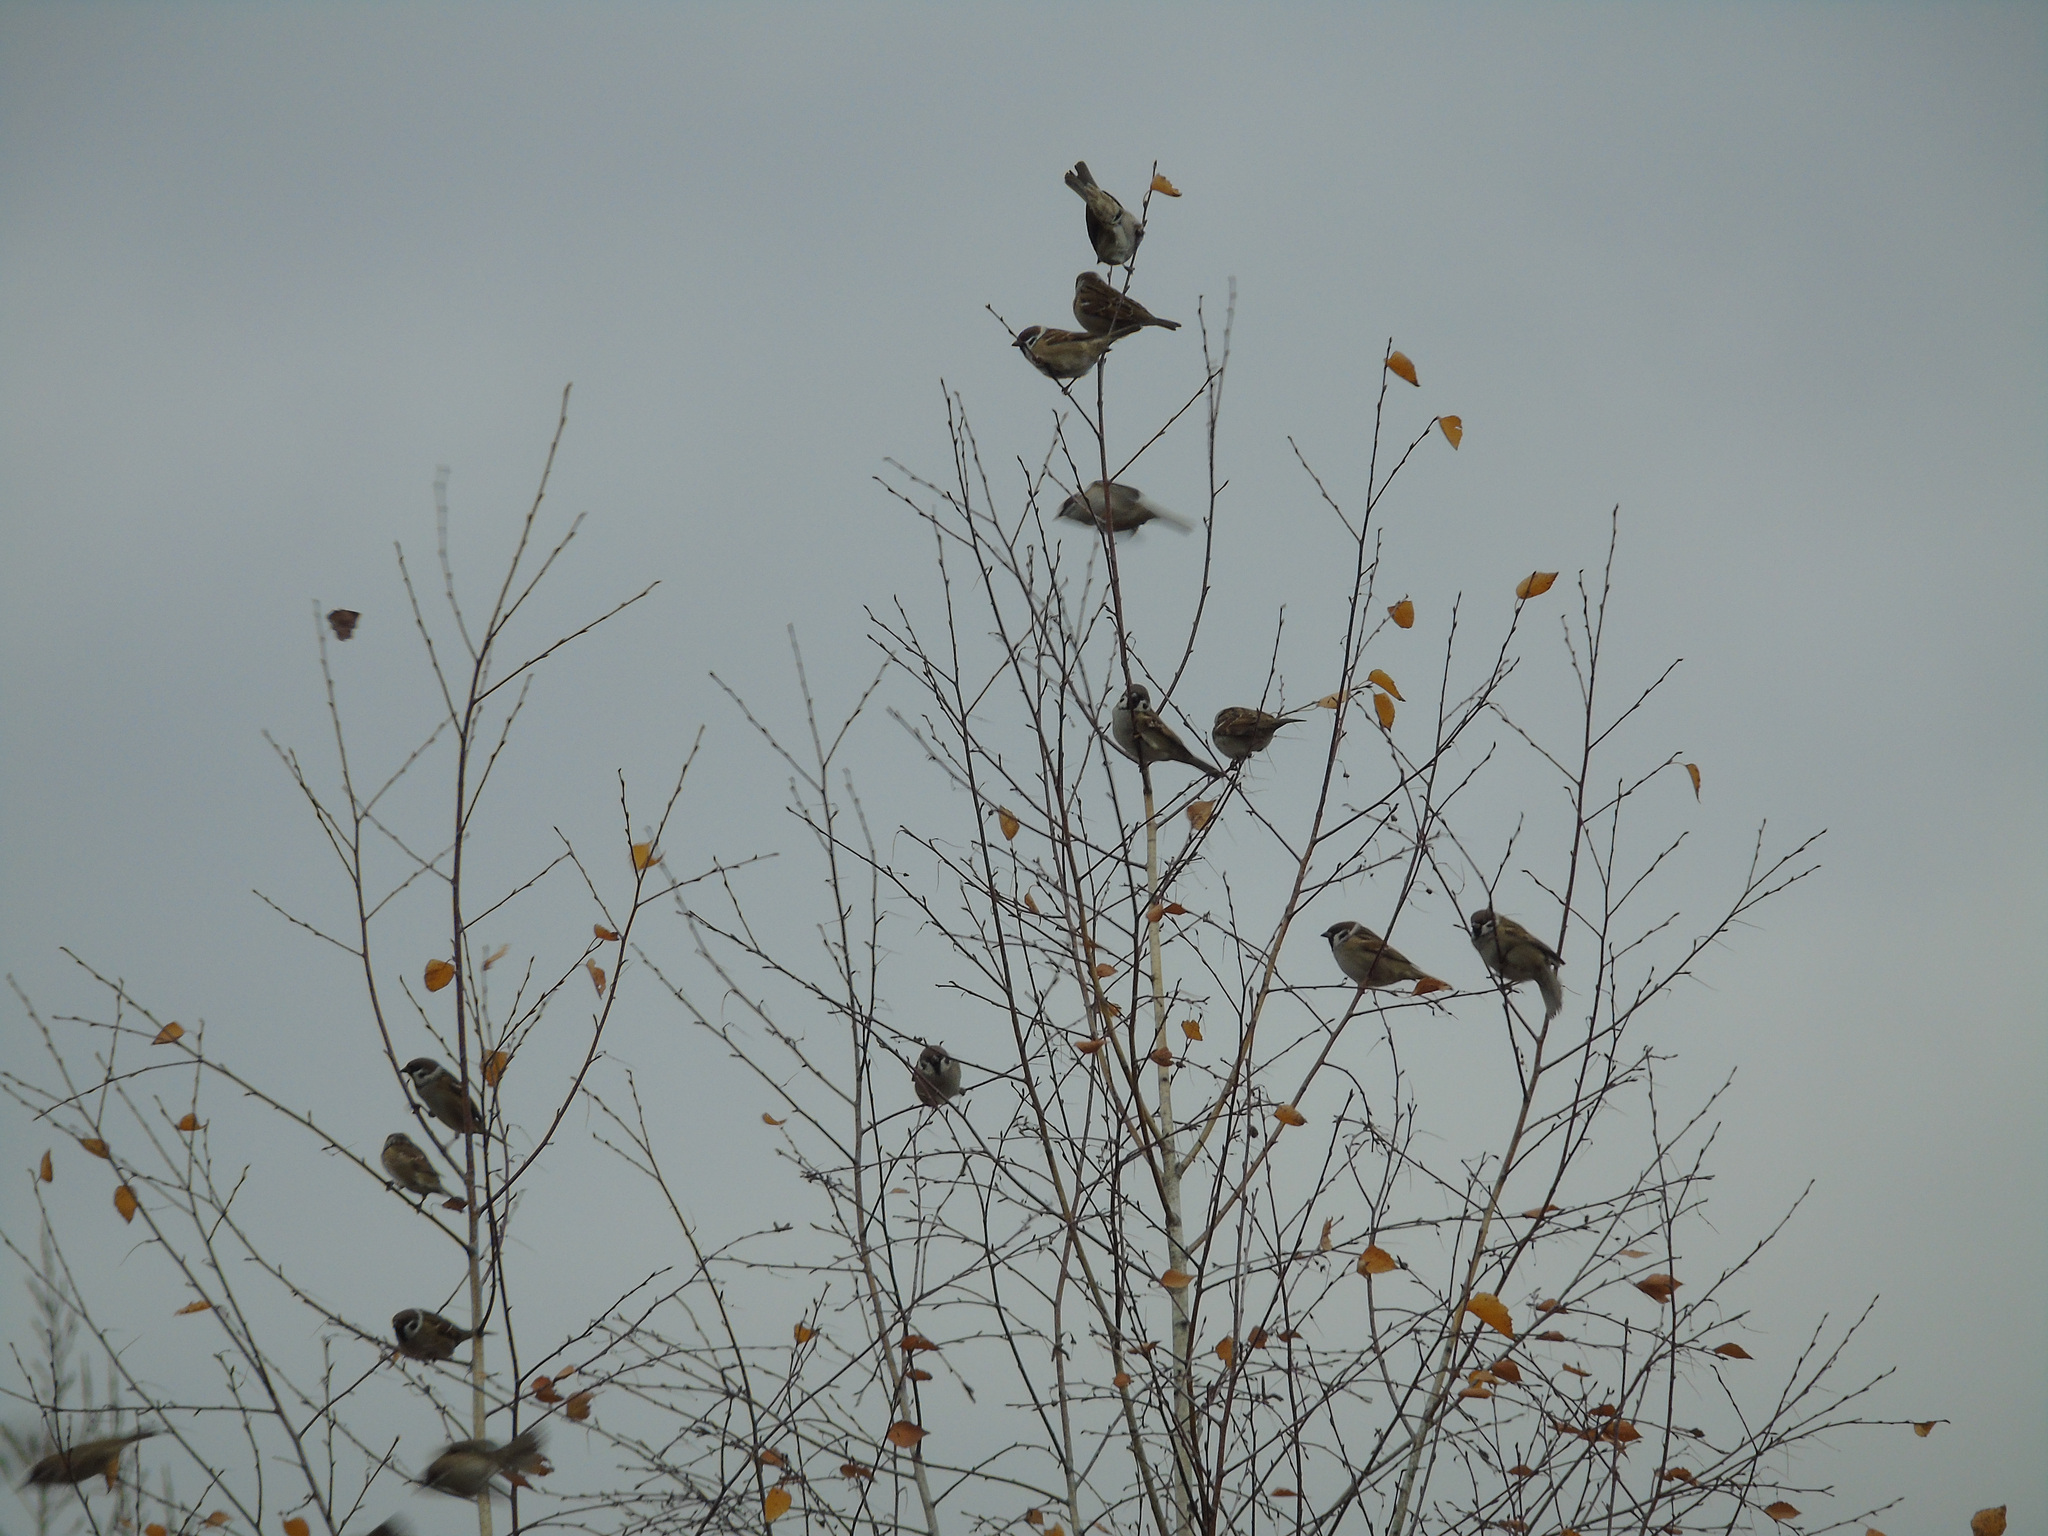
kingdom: Animalia
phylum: Chordata
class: Aves
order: Passeriformes
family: Passeridae
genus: Passer
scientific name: Passer montanus
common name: Eurasian tree sparrow
